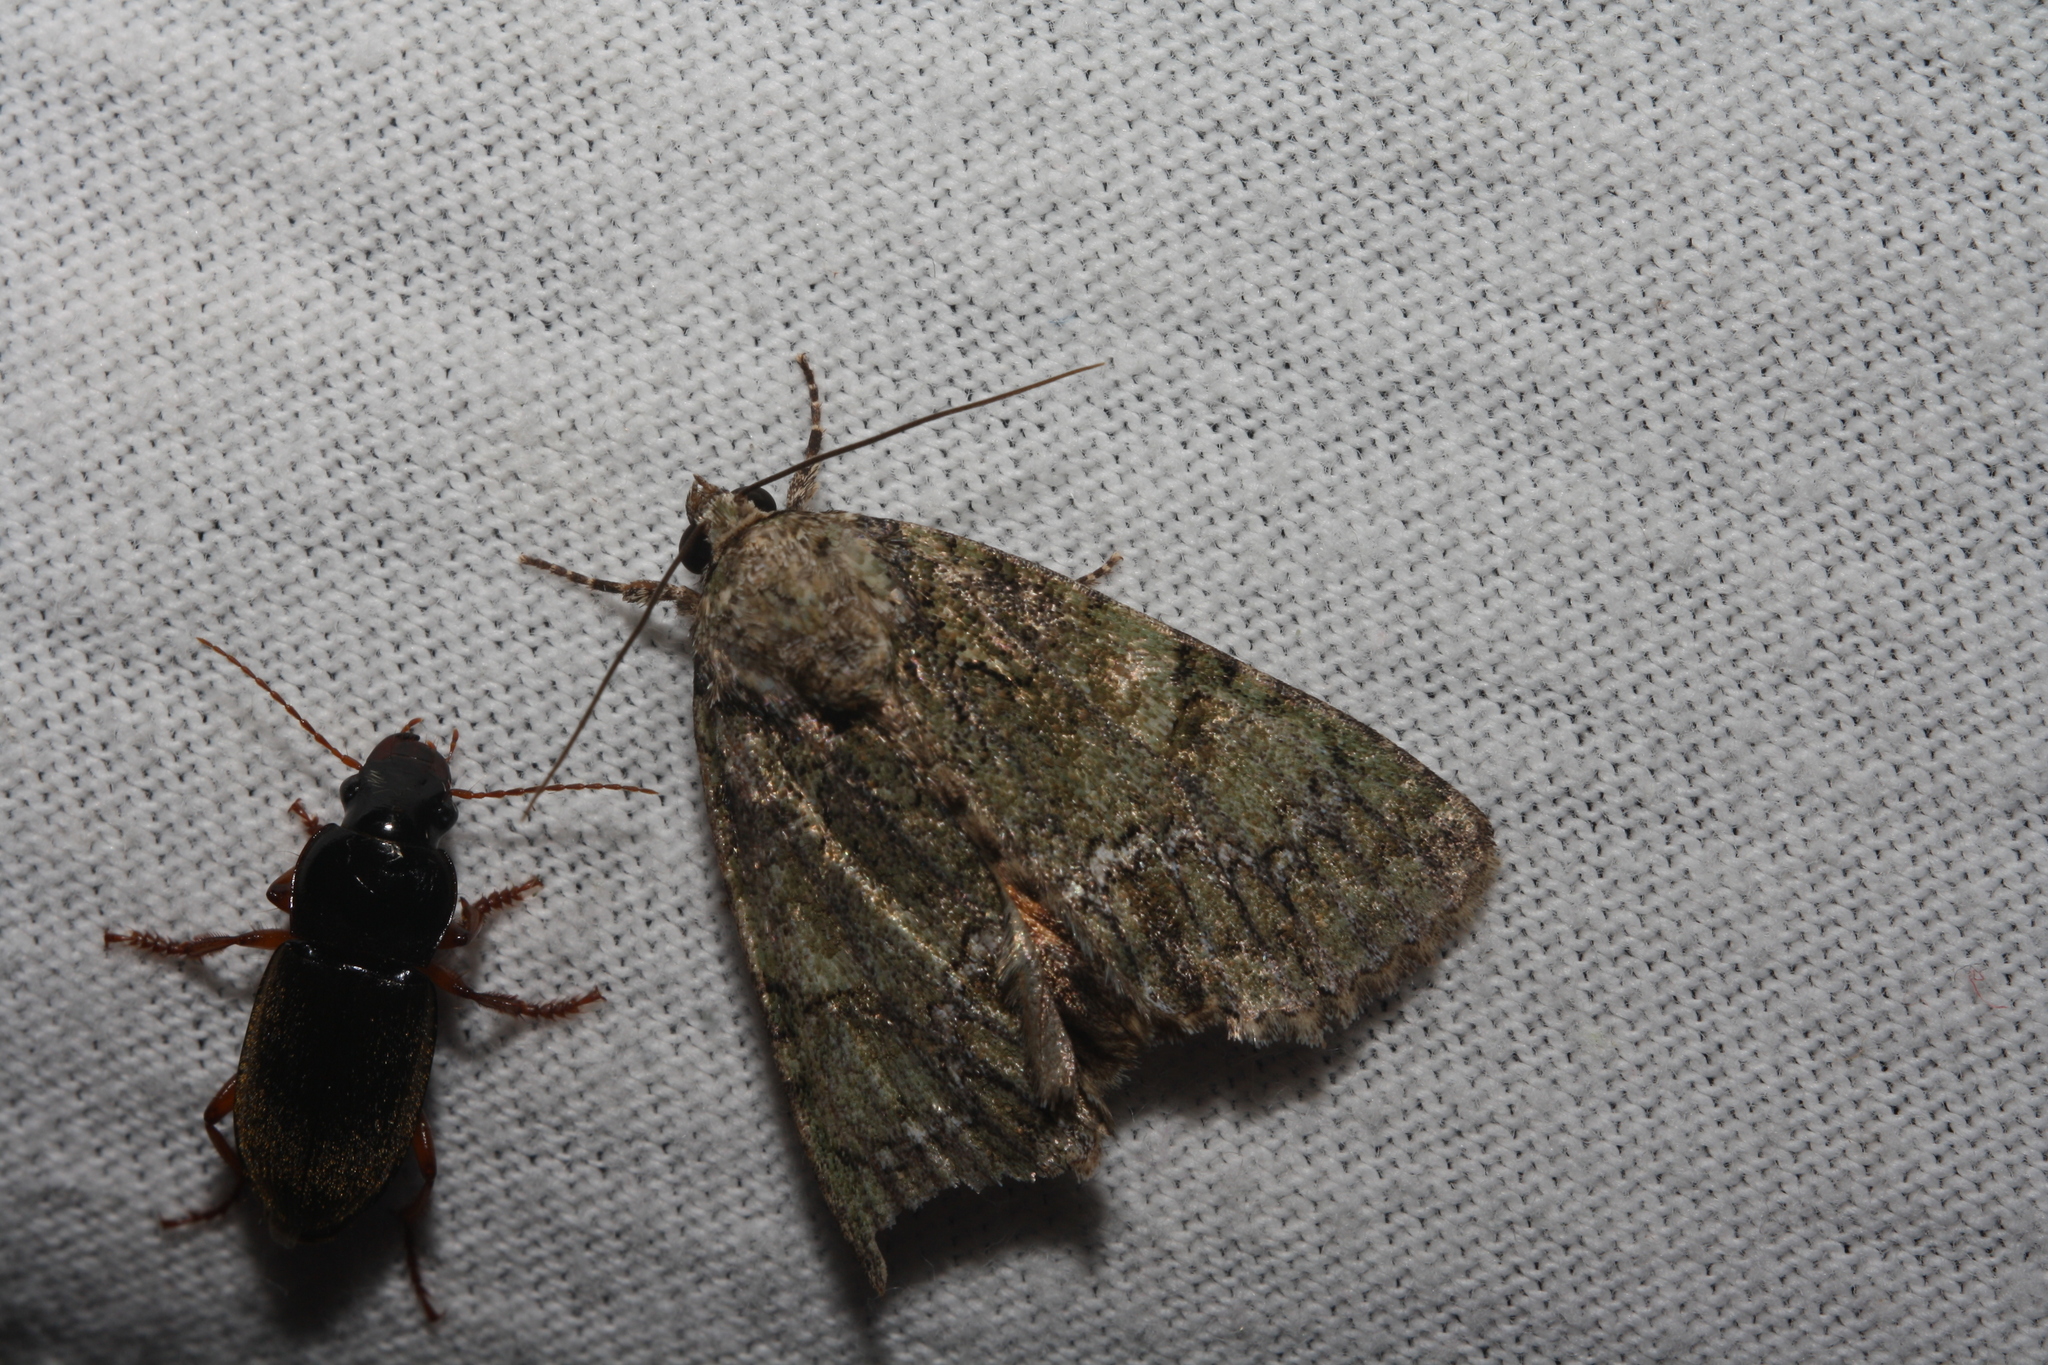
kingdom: Animalia
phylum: Arthropoda
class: Insecta
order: Lepidoptera
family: Noctuidae
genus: Polyphaenis
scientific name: Polyphaenis sericata
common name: Guernsey underwing
